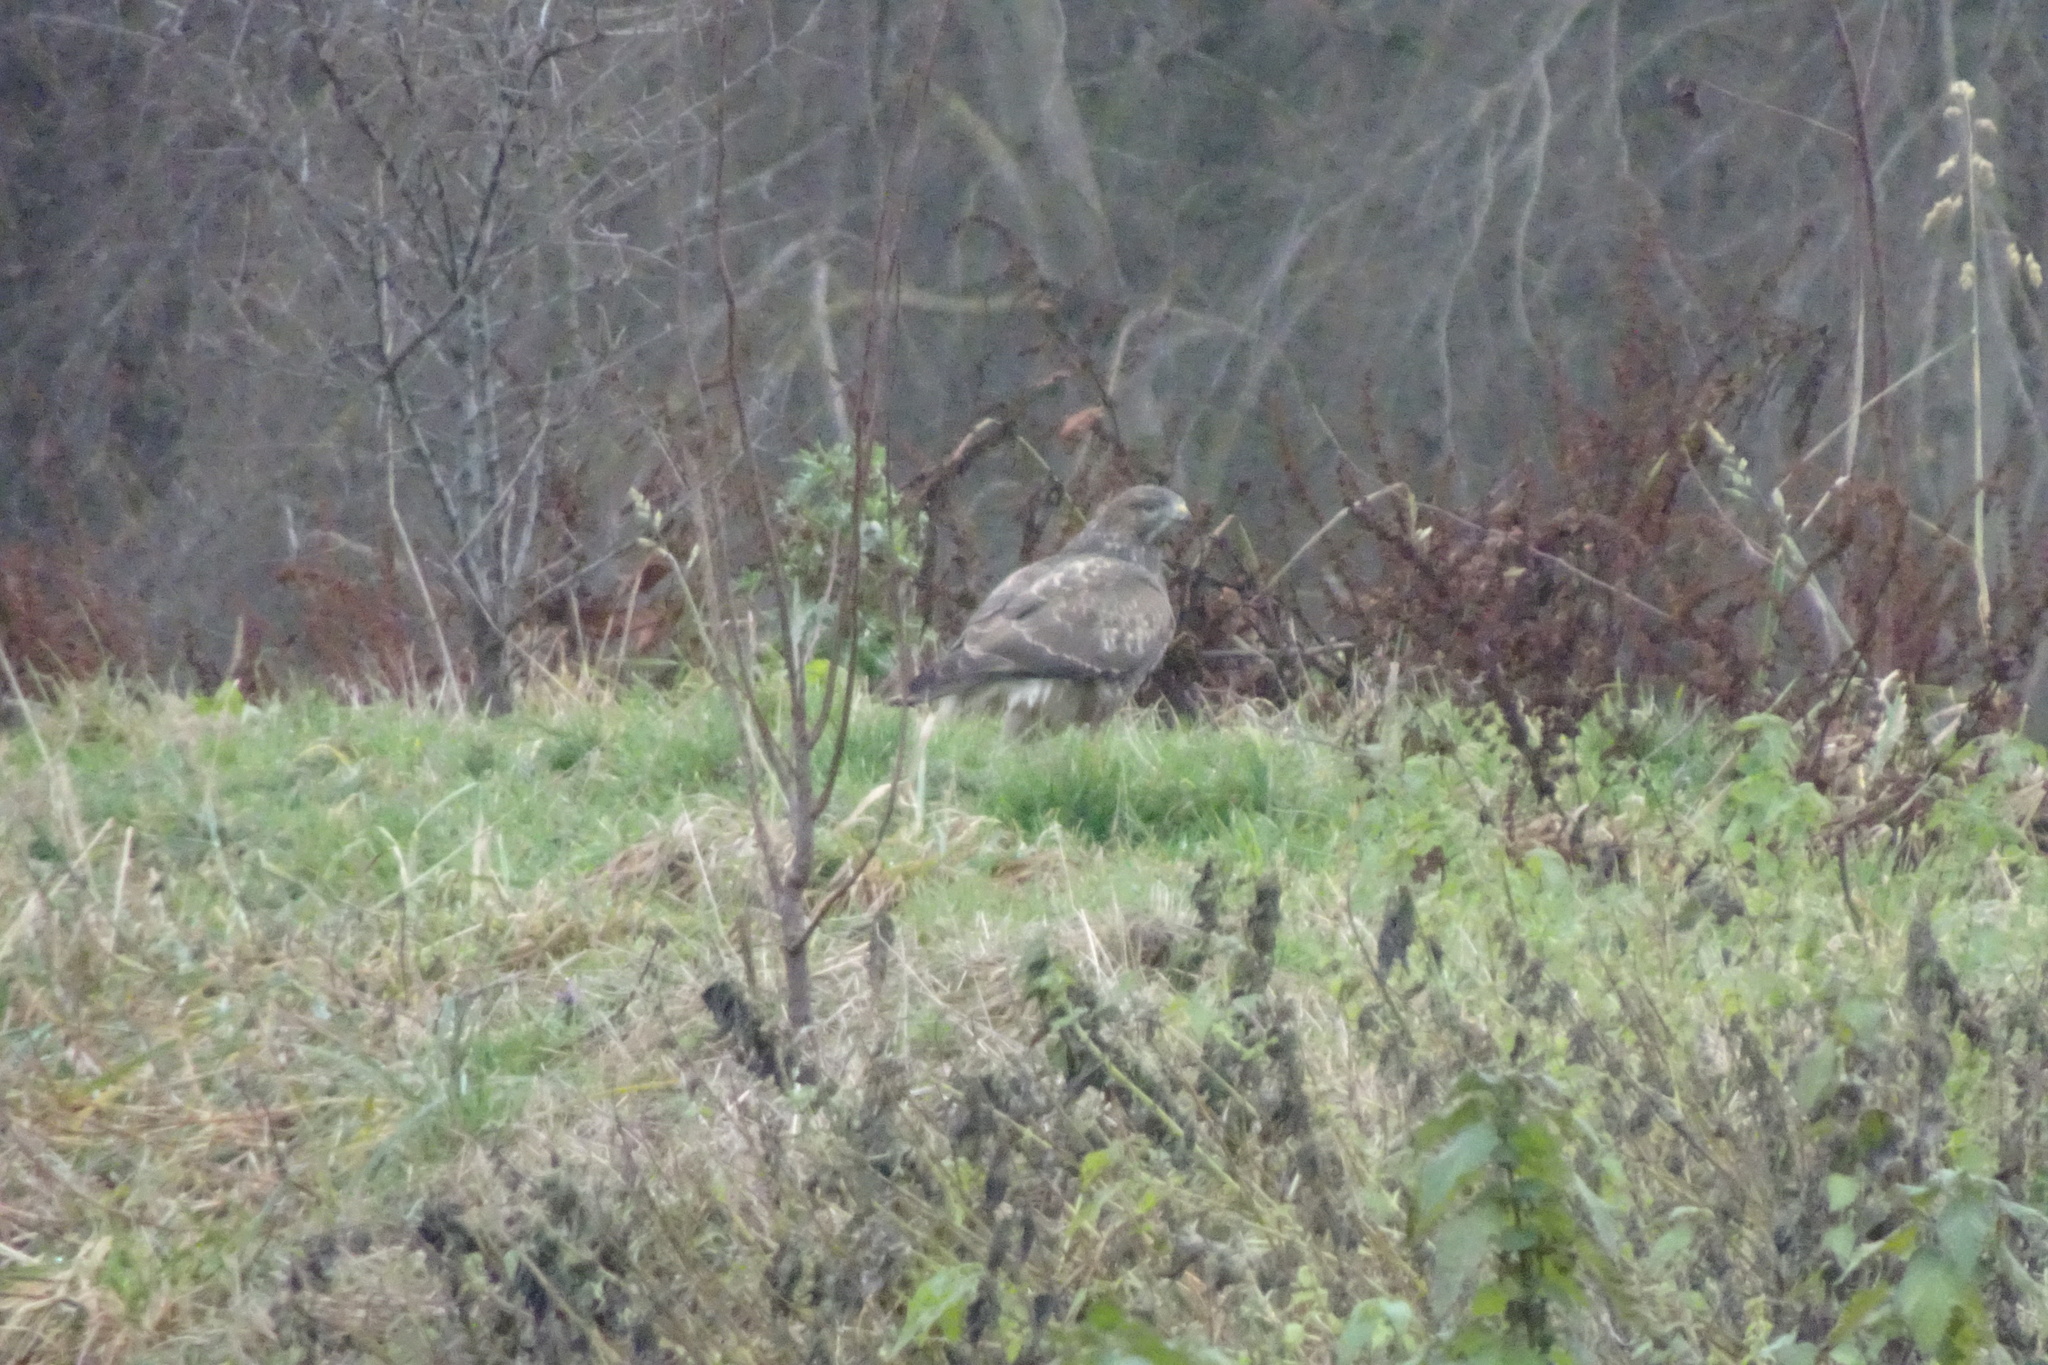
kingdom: Animalia
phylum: Chordata
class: Aves
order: Accipitriformes
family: Accipitridae
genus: Buteo
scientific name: Buteo buteo
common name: Common buzzard
